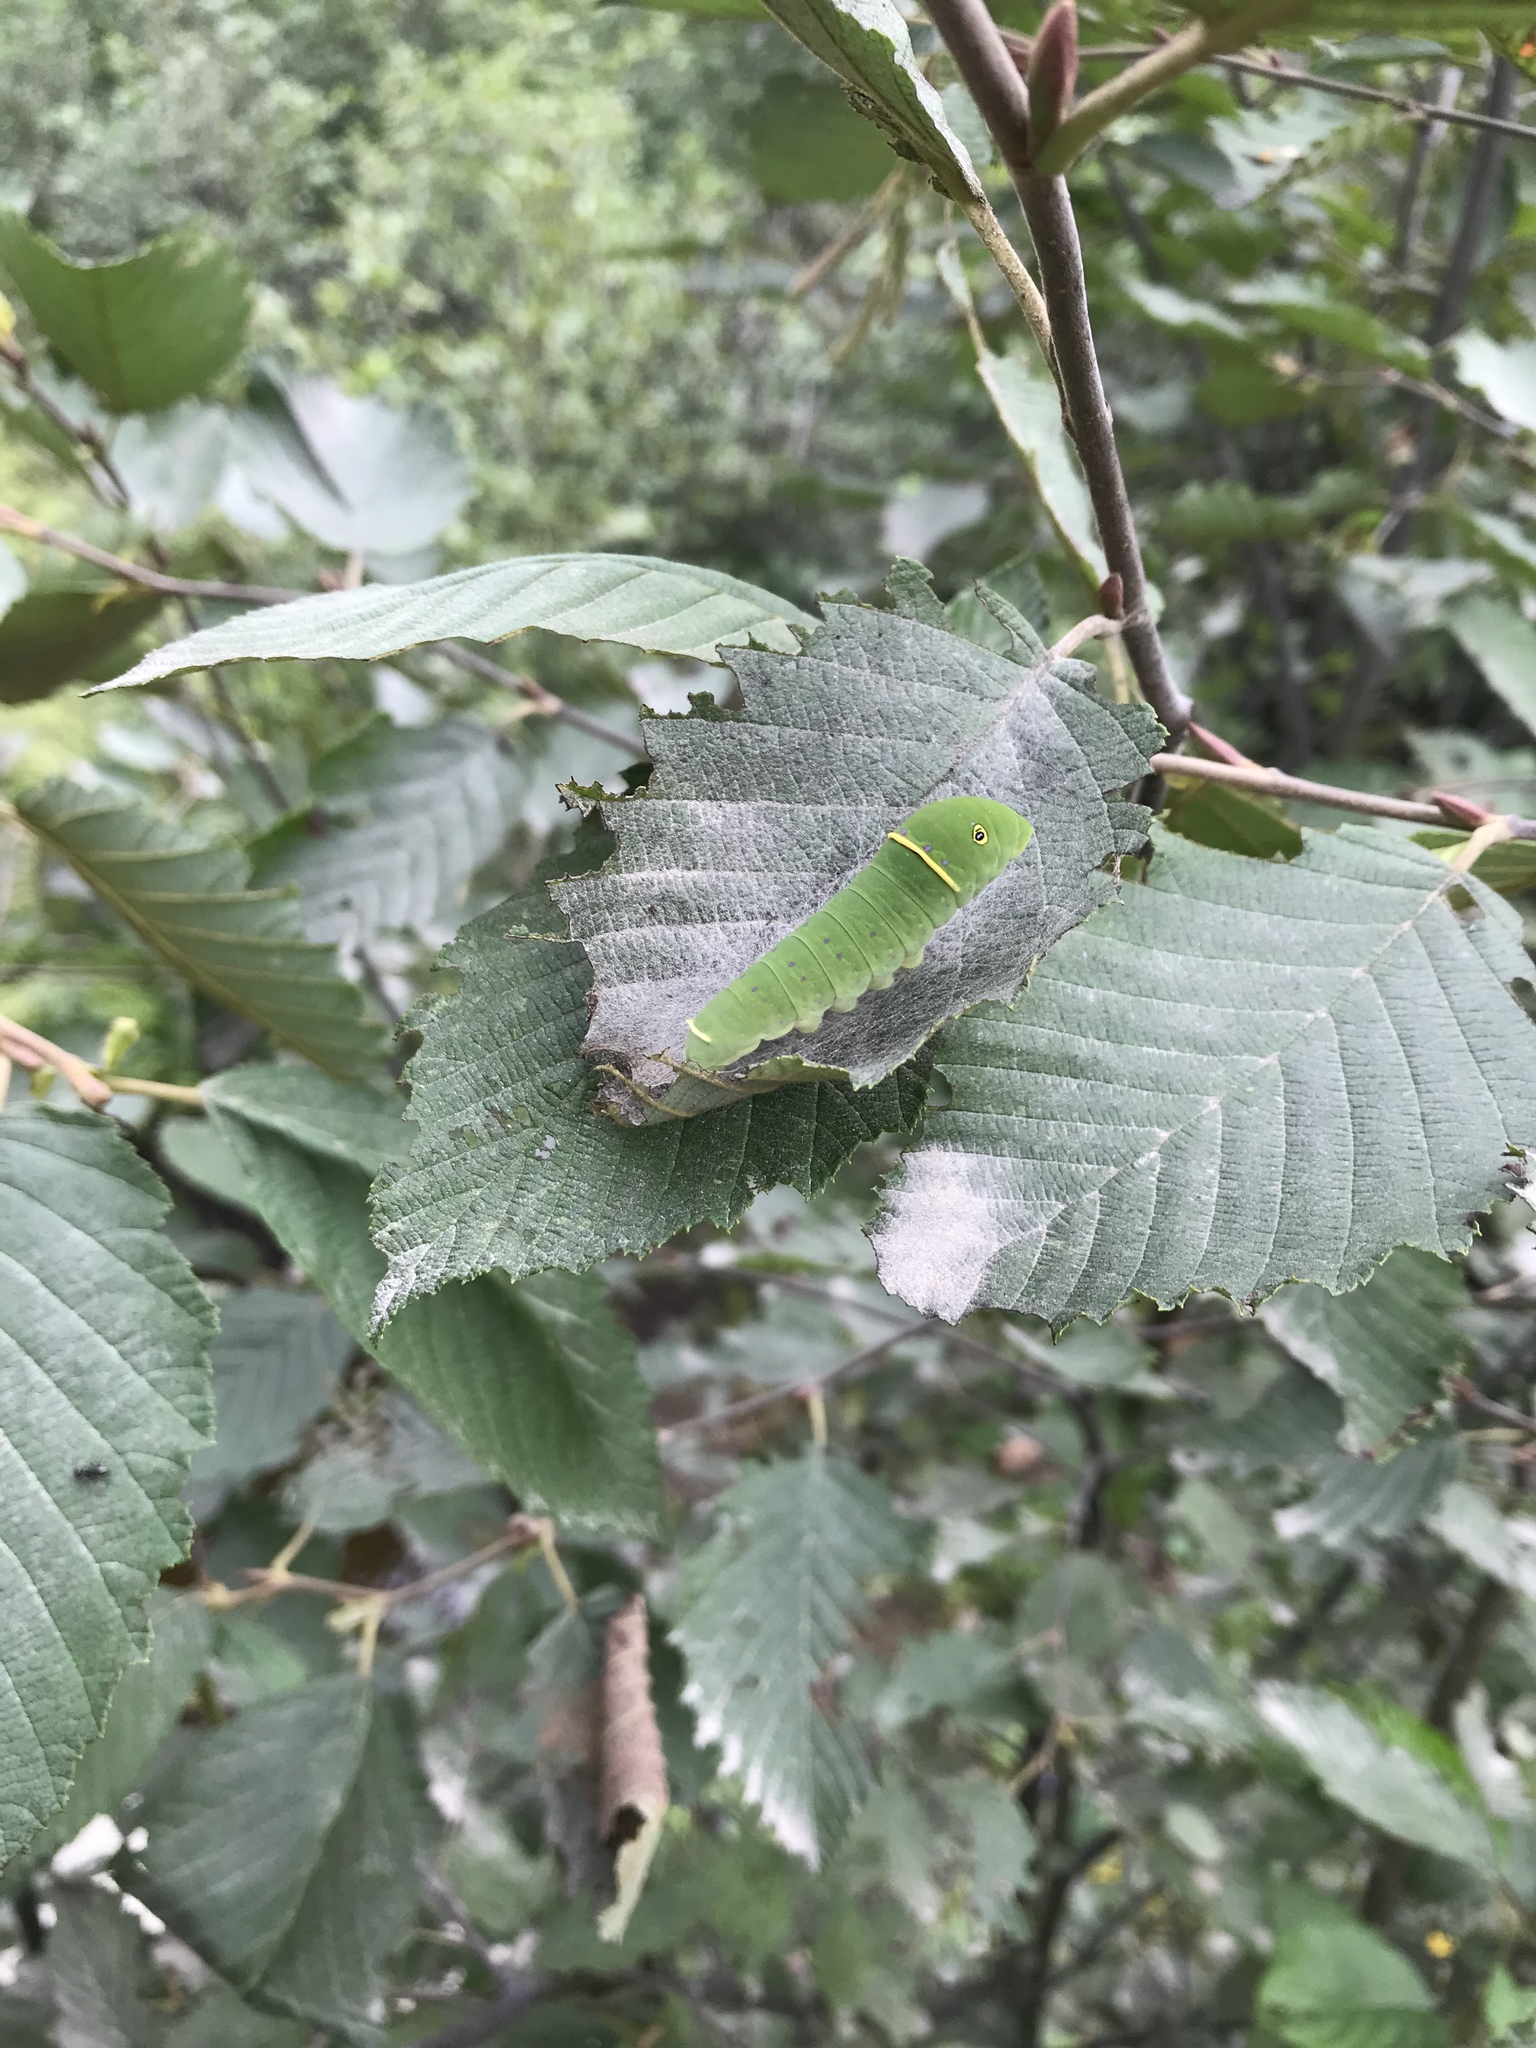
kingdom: Animalia
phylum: Arthropoda
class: Insecta
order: Lepidoptera
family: Papilionidae
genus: Papilio
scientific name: Papilio canadensis
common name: Canadian tiger swallowtail
